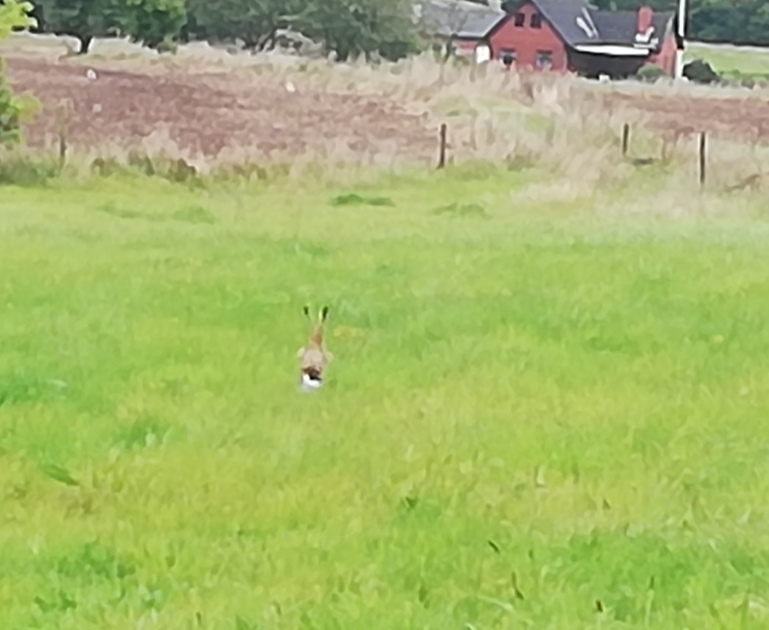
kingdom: Animalia
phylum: Chordata
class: Mammalia
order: Lagomorpha
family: Leporidae
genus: Lepus
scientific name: Lepus europaeus
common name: European hare
